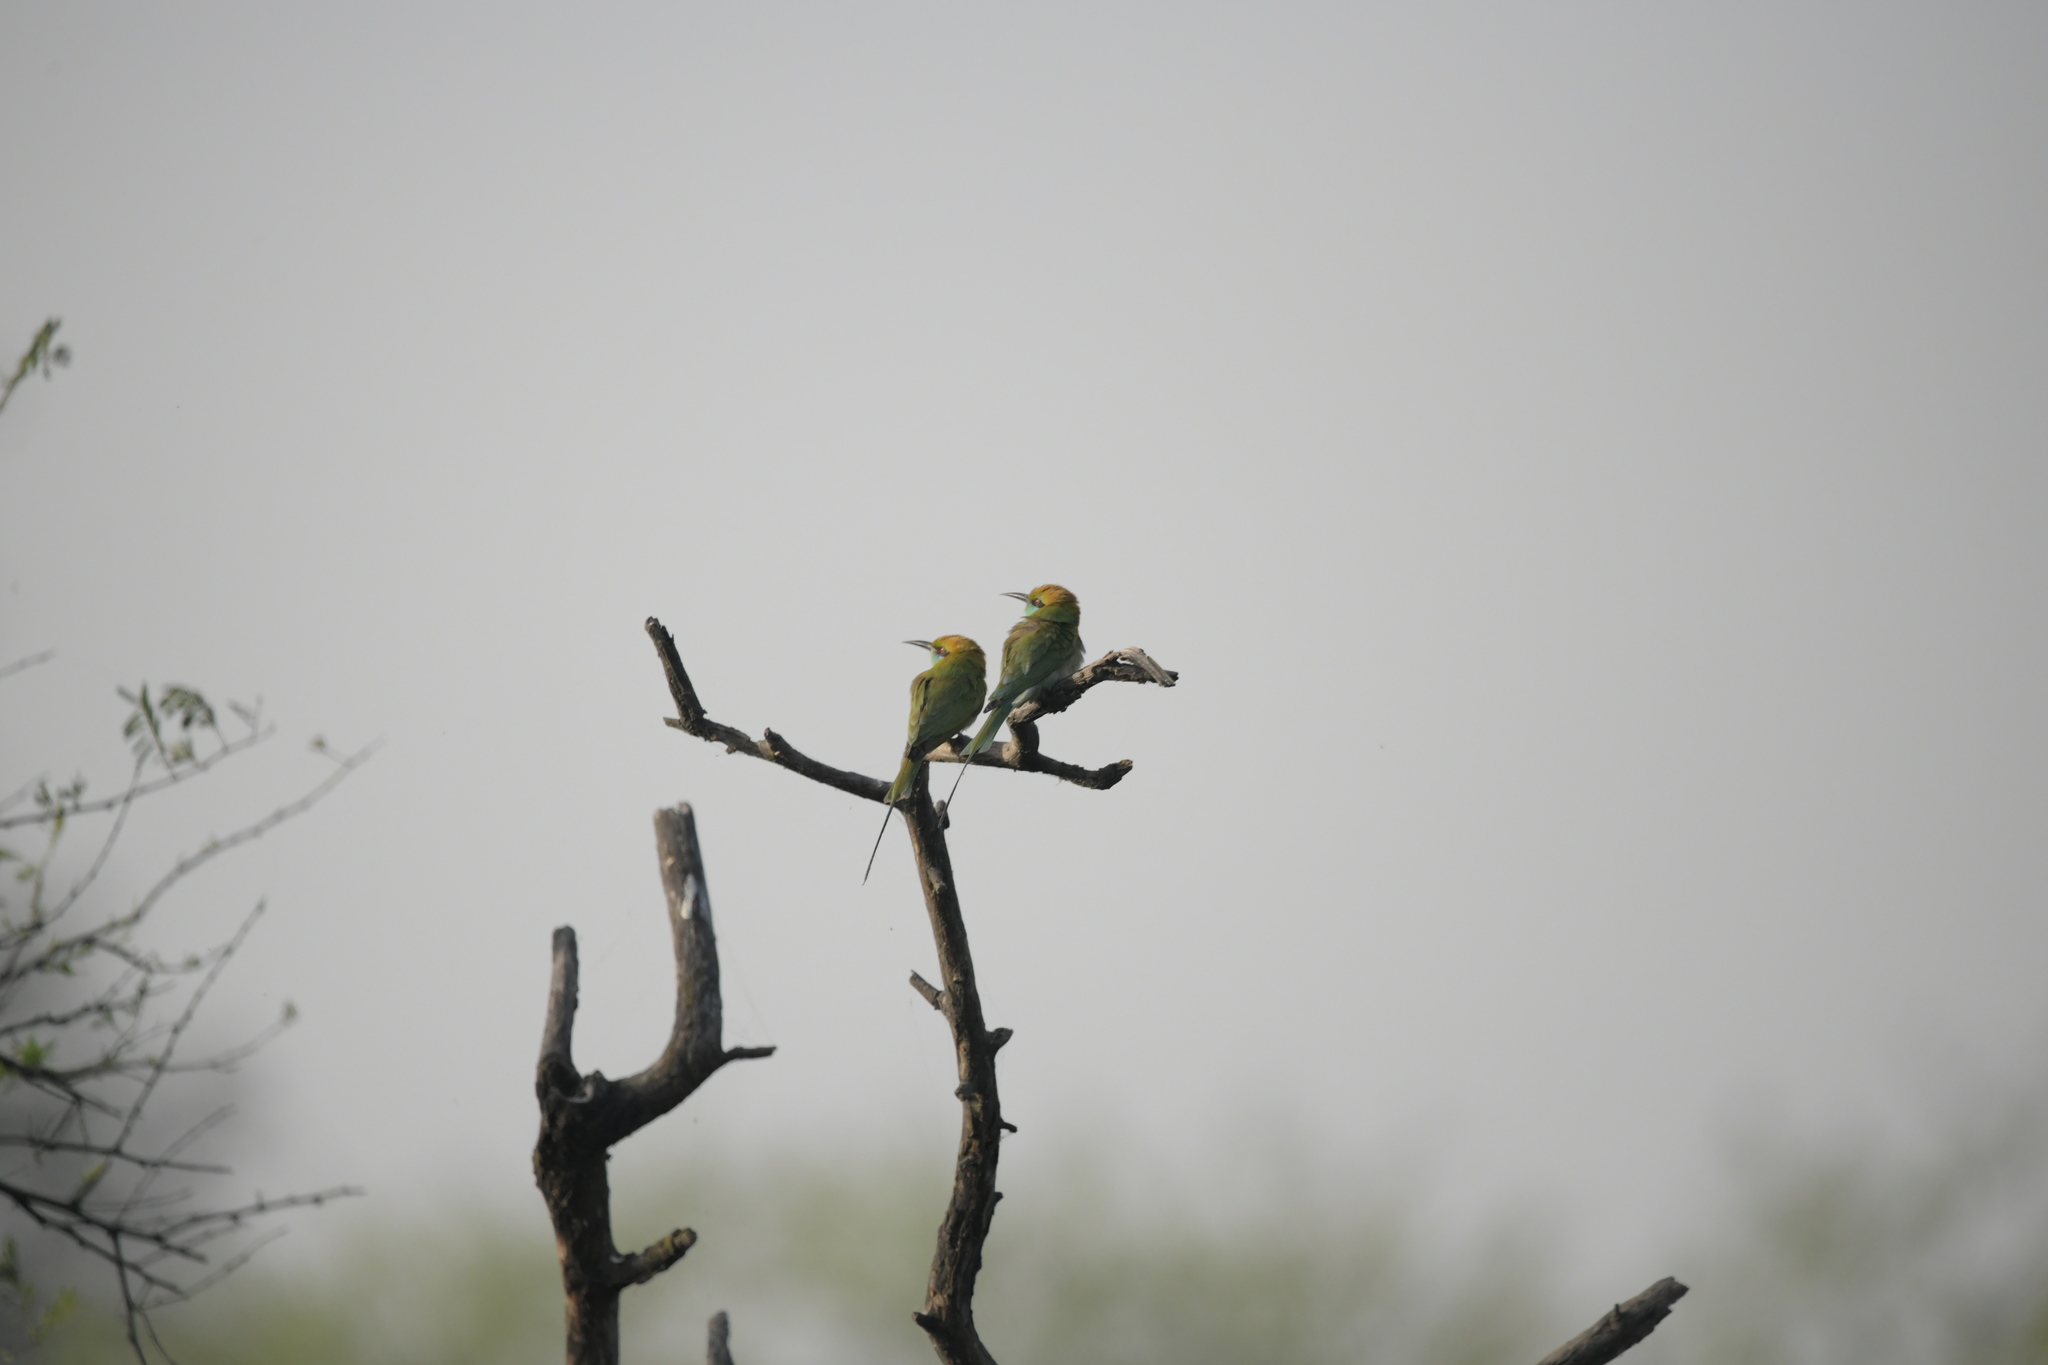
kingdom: Animalia
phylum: Chordata
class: Aves
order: Coraciiformes
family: Meropidae
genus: Merops
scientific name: Merops orientalis
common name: Green bee-eater
